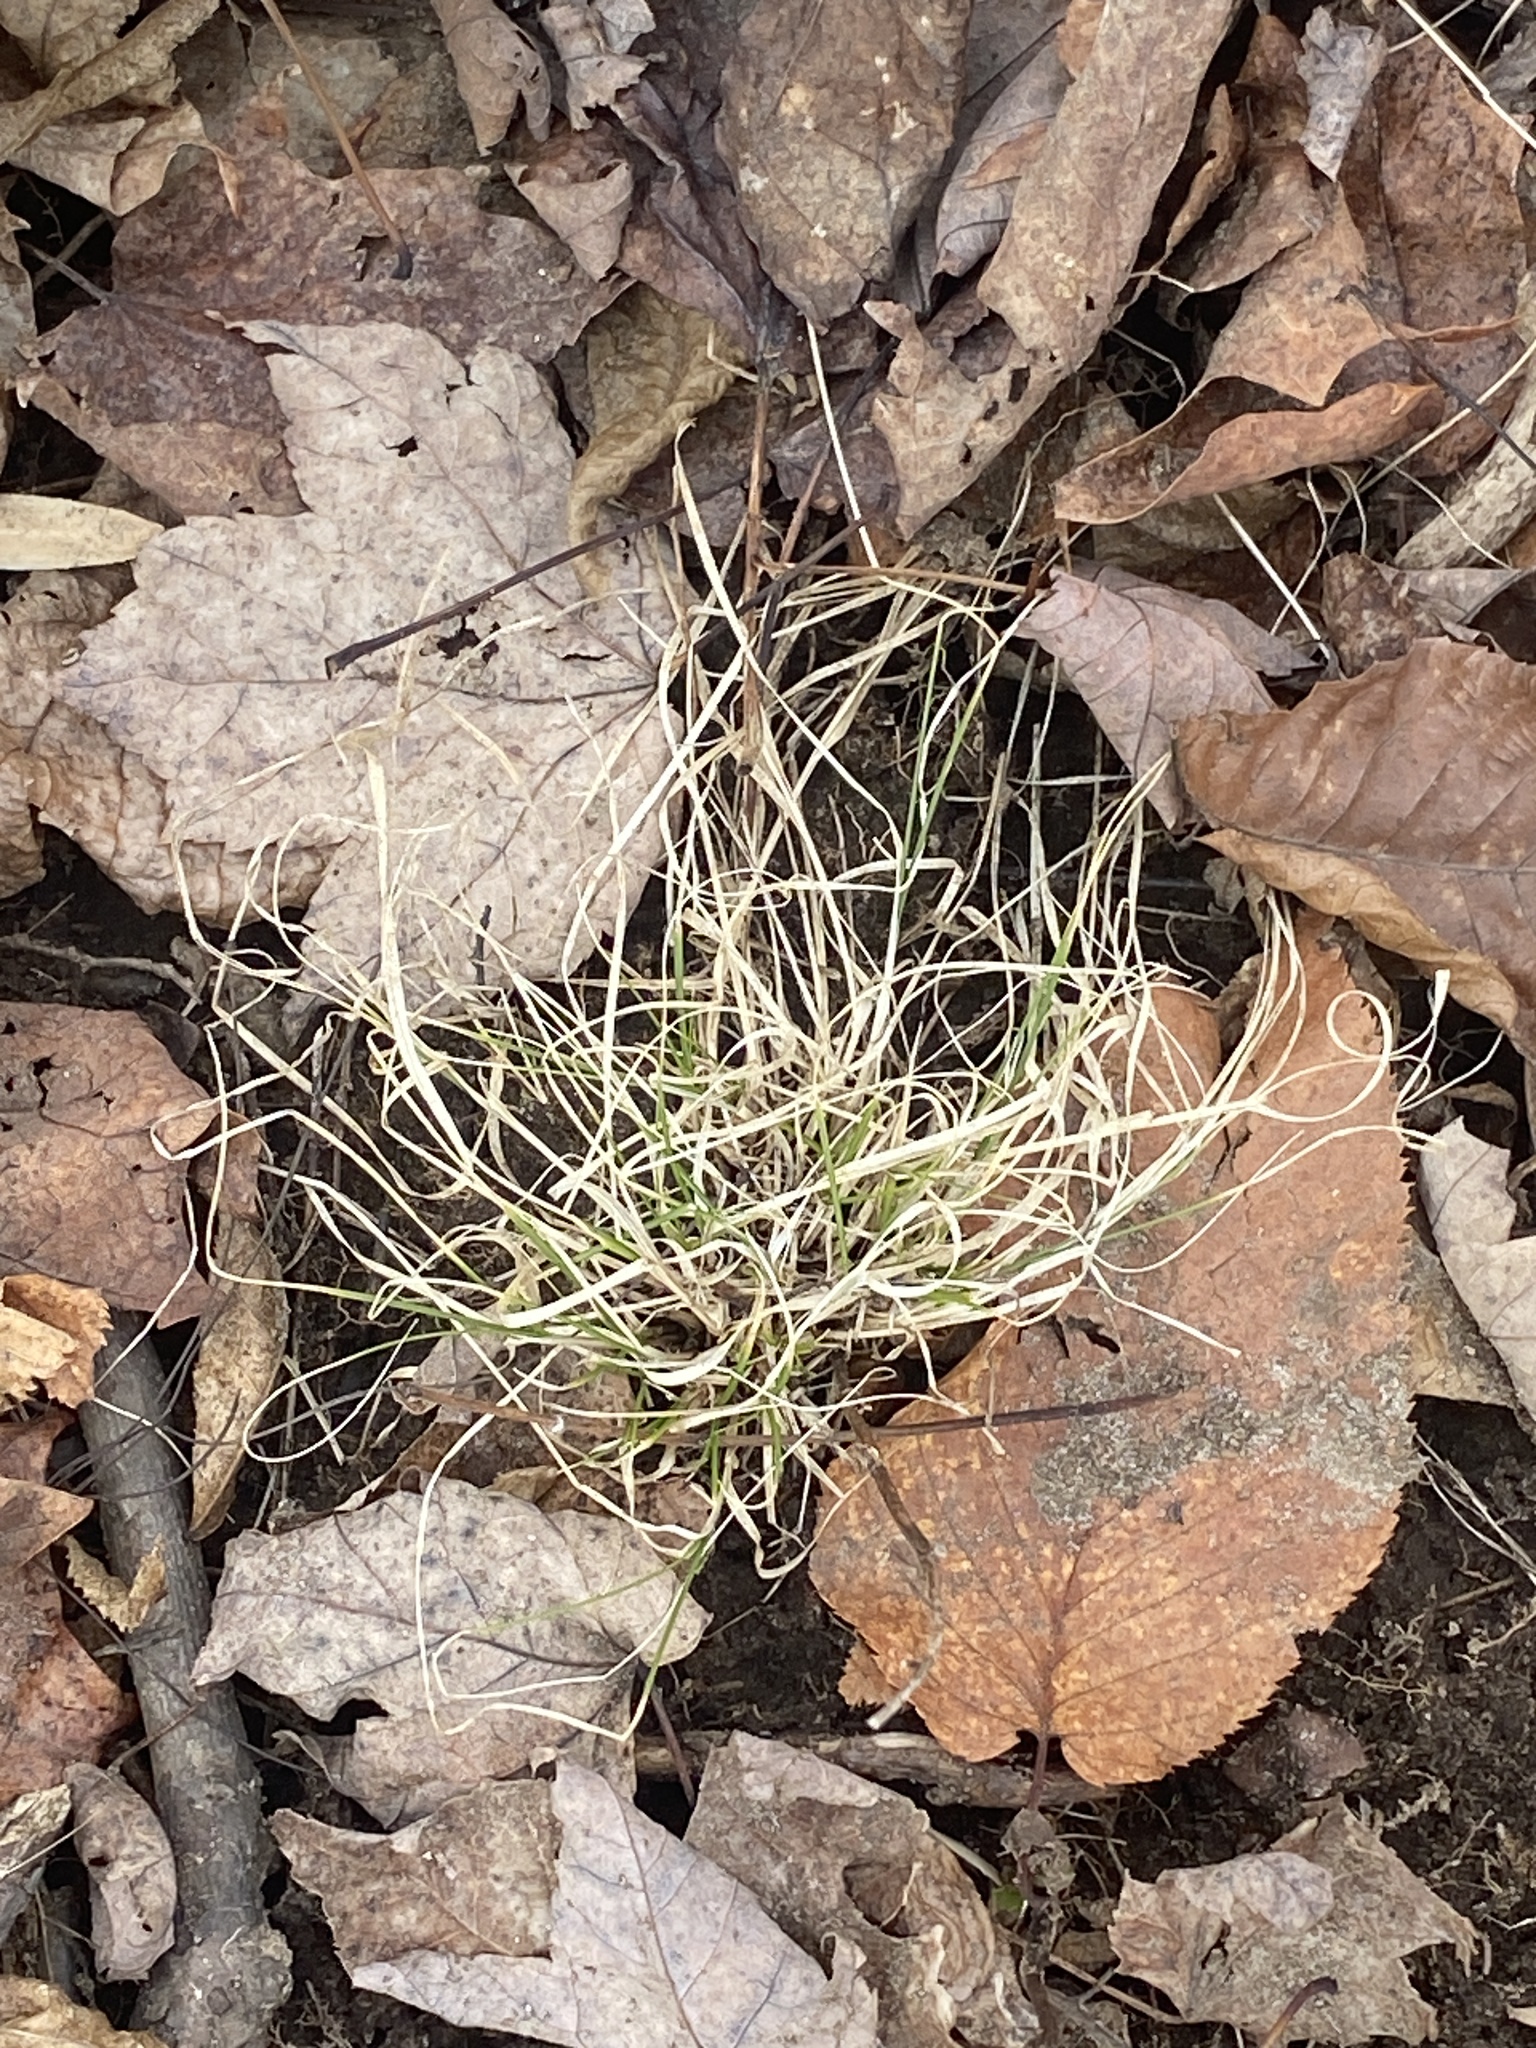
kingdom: Plantae
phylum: Tracheophyta
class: Liliopsida
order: Poales
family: Poaceae
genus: Danthonia
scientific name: Danthonia spicata
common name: Common wild oatgrass
